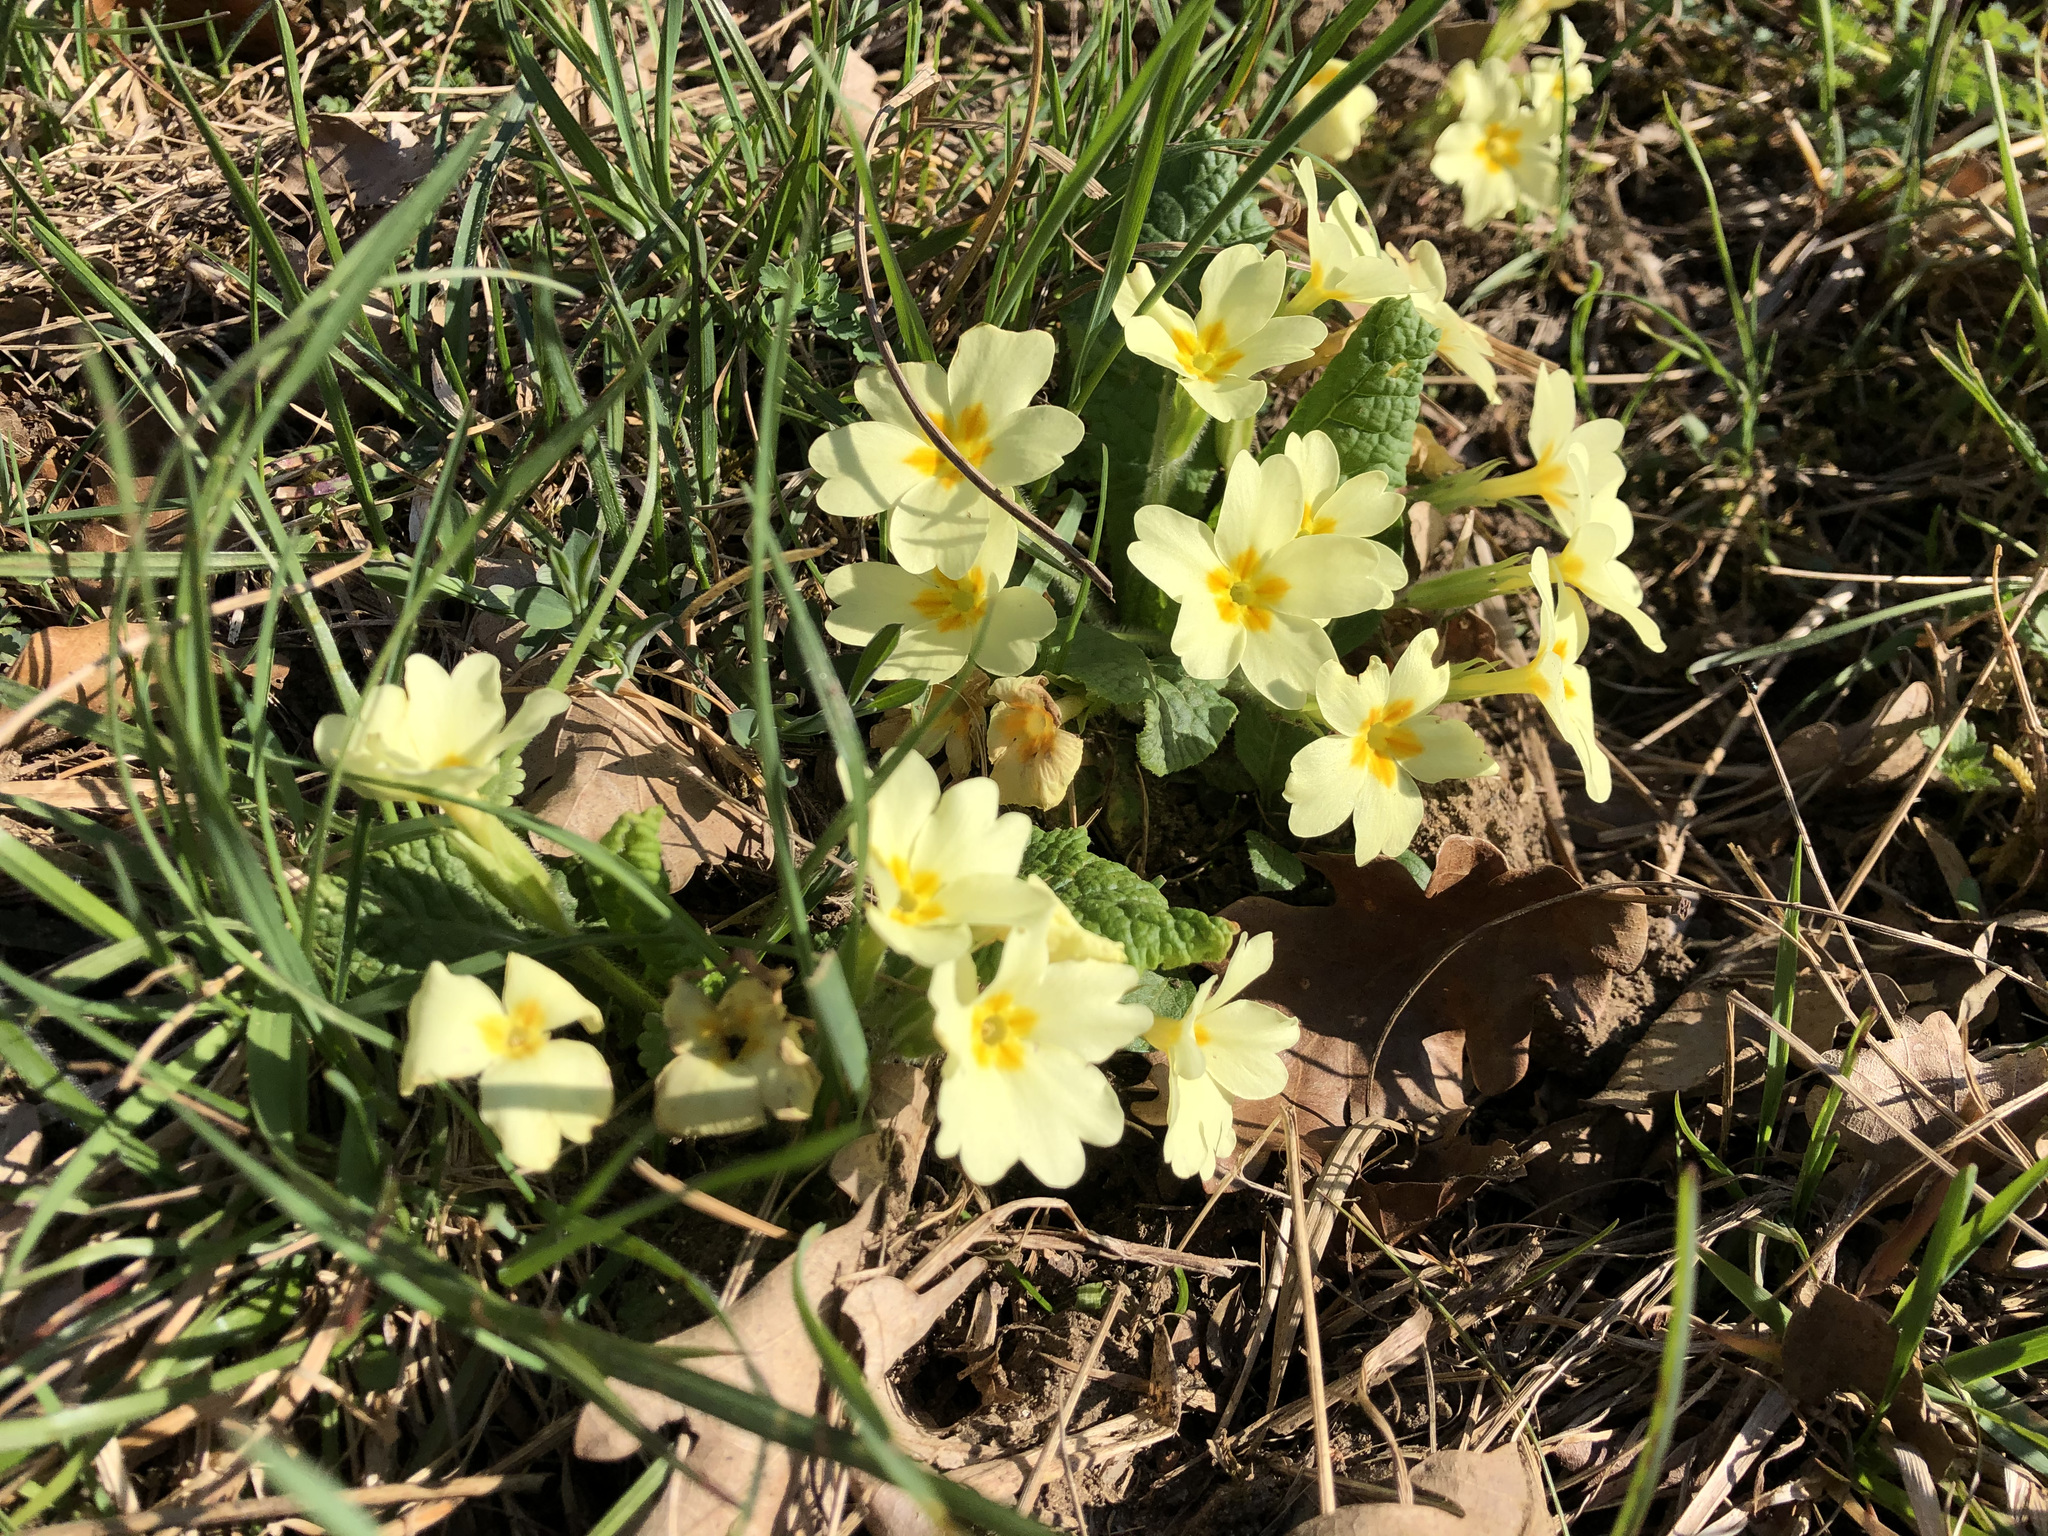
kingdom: Plantae
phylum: Tracheophyta
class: Magnoliopsida
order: Ericales
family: Primulaceae
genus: Primula
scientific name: Primula vulgaris
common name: Primrose
